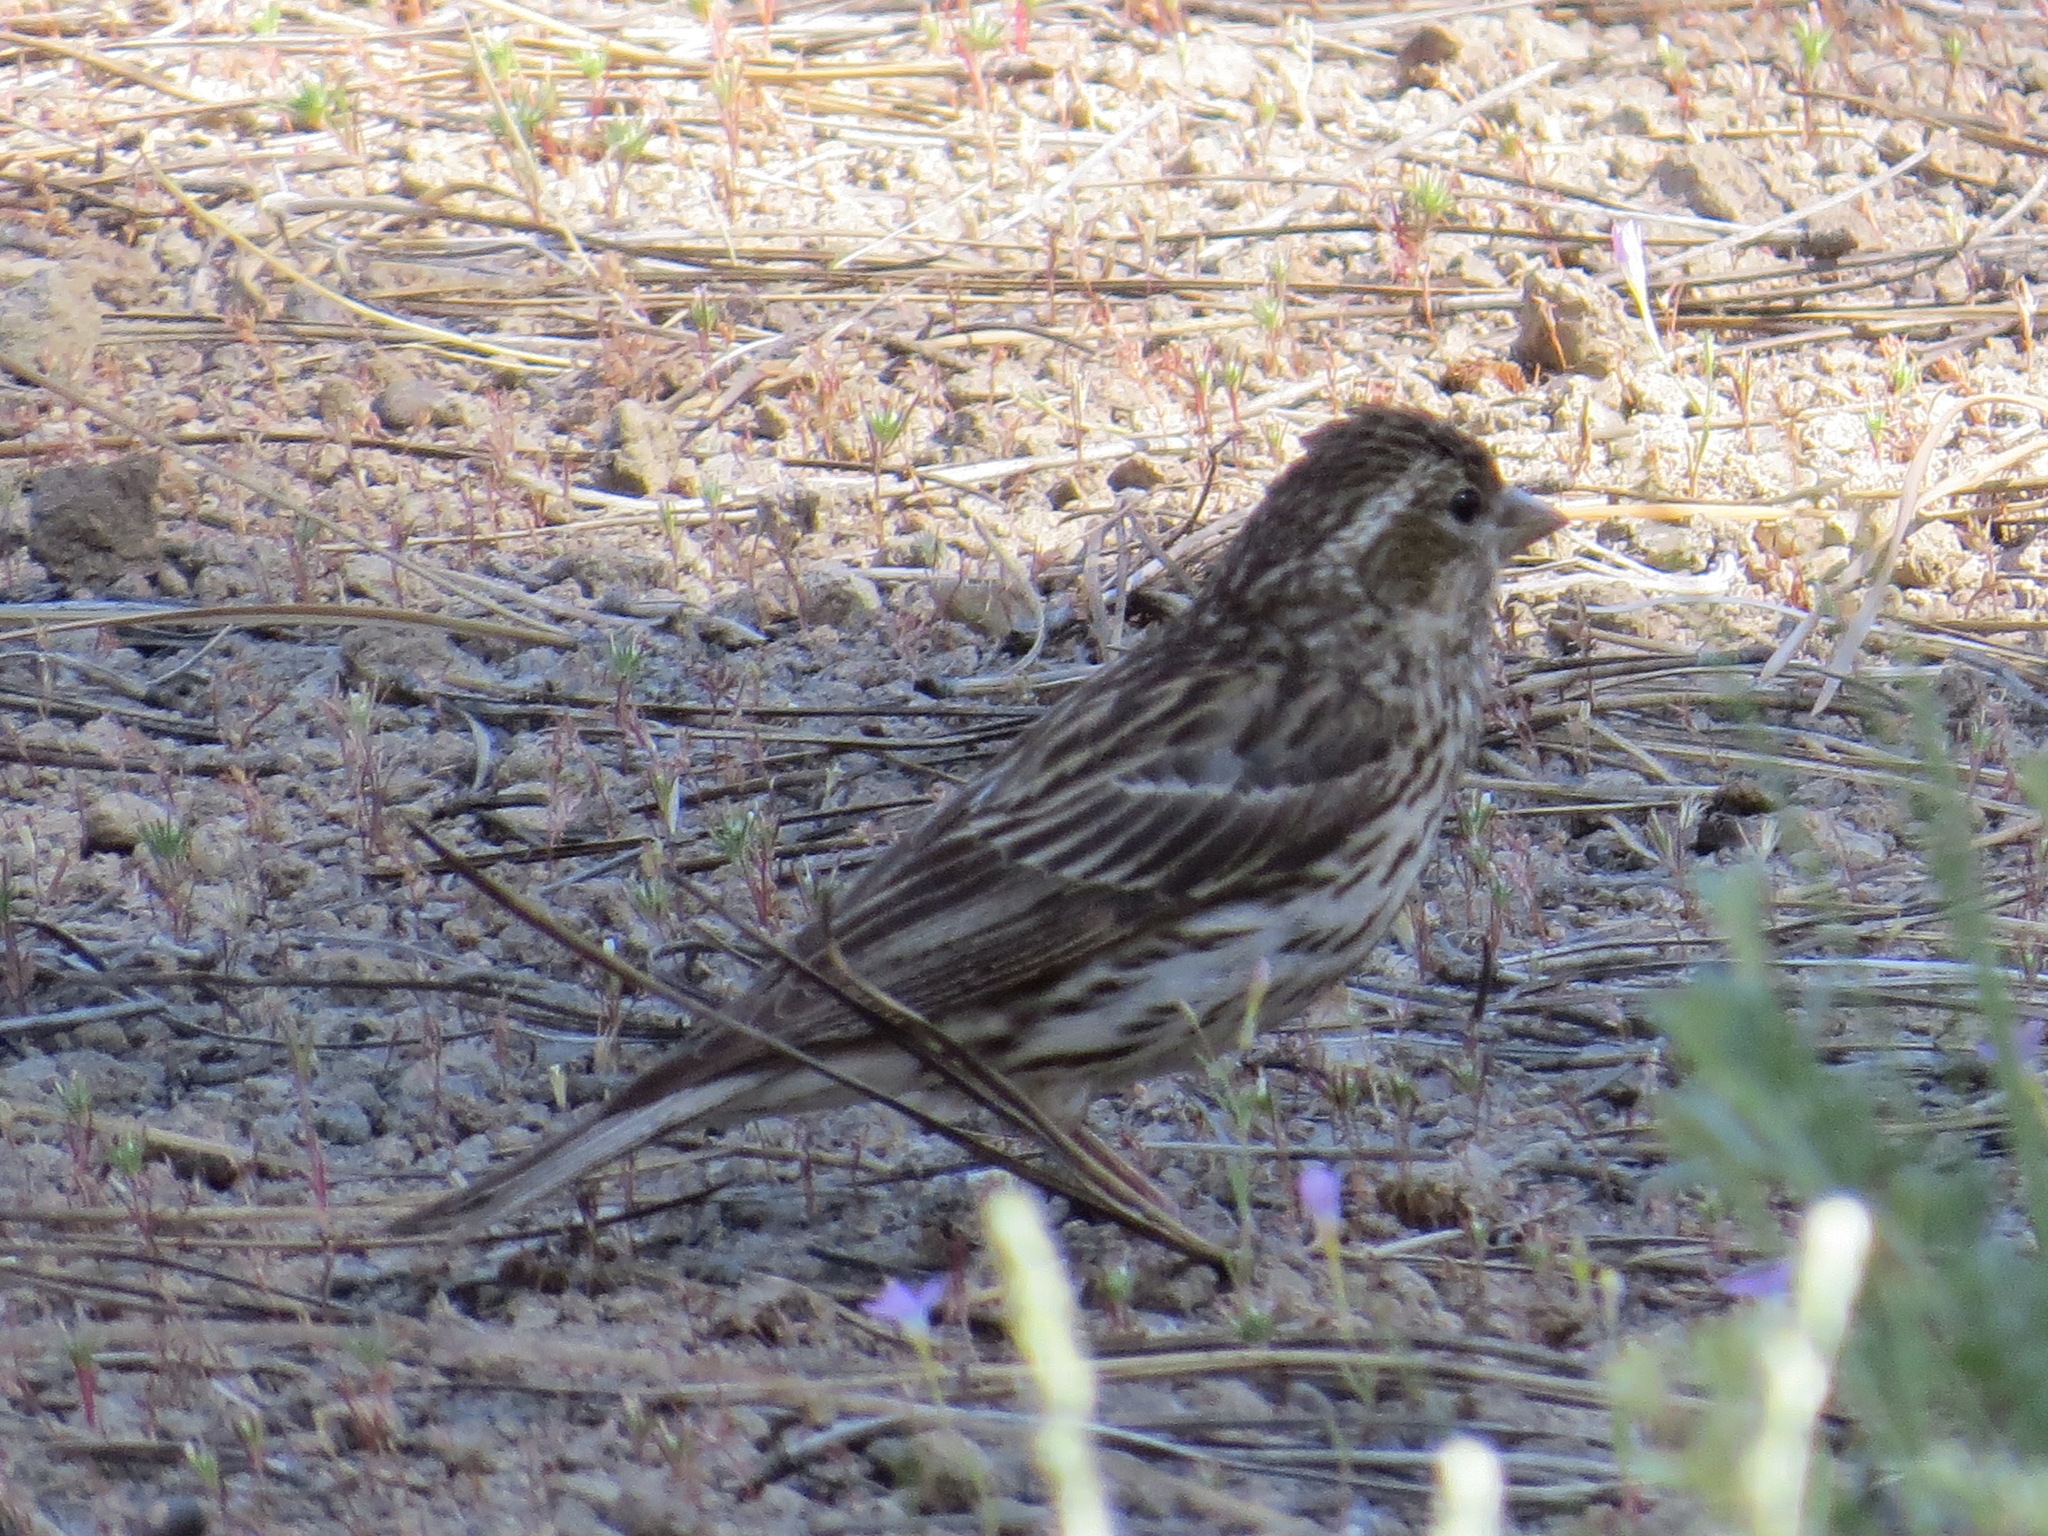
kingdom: Animalia
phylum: Chordata
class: Aves
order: Passeriformes
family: Fringillidae
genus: Haemorhous
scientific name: Haemorhous cassinii
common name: Cassin's finch
